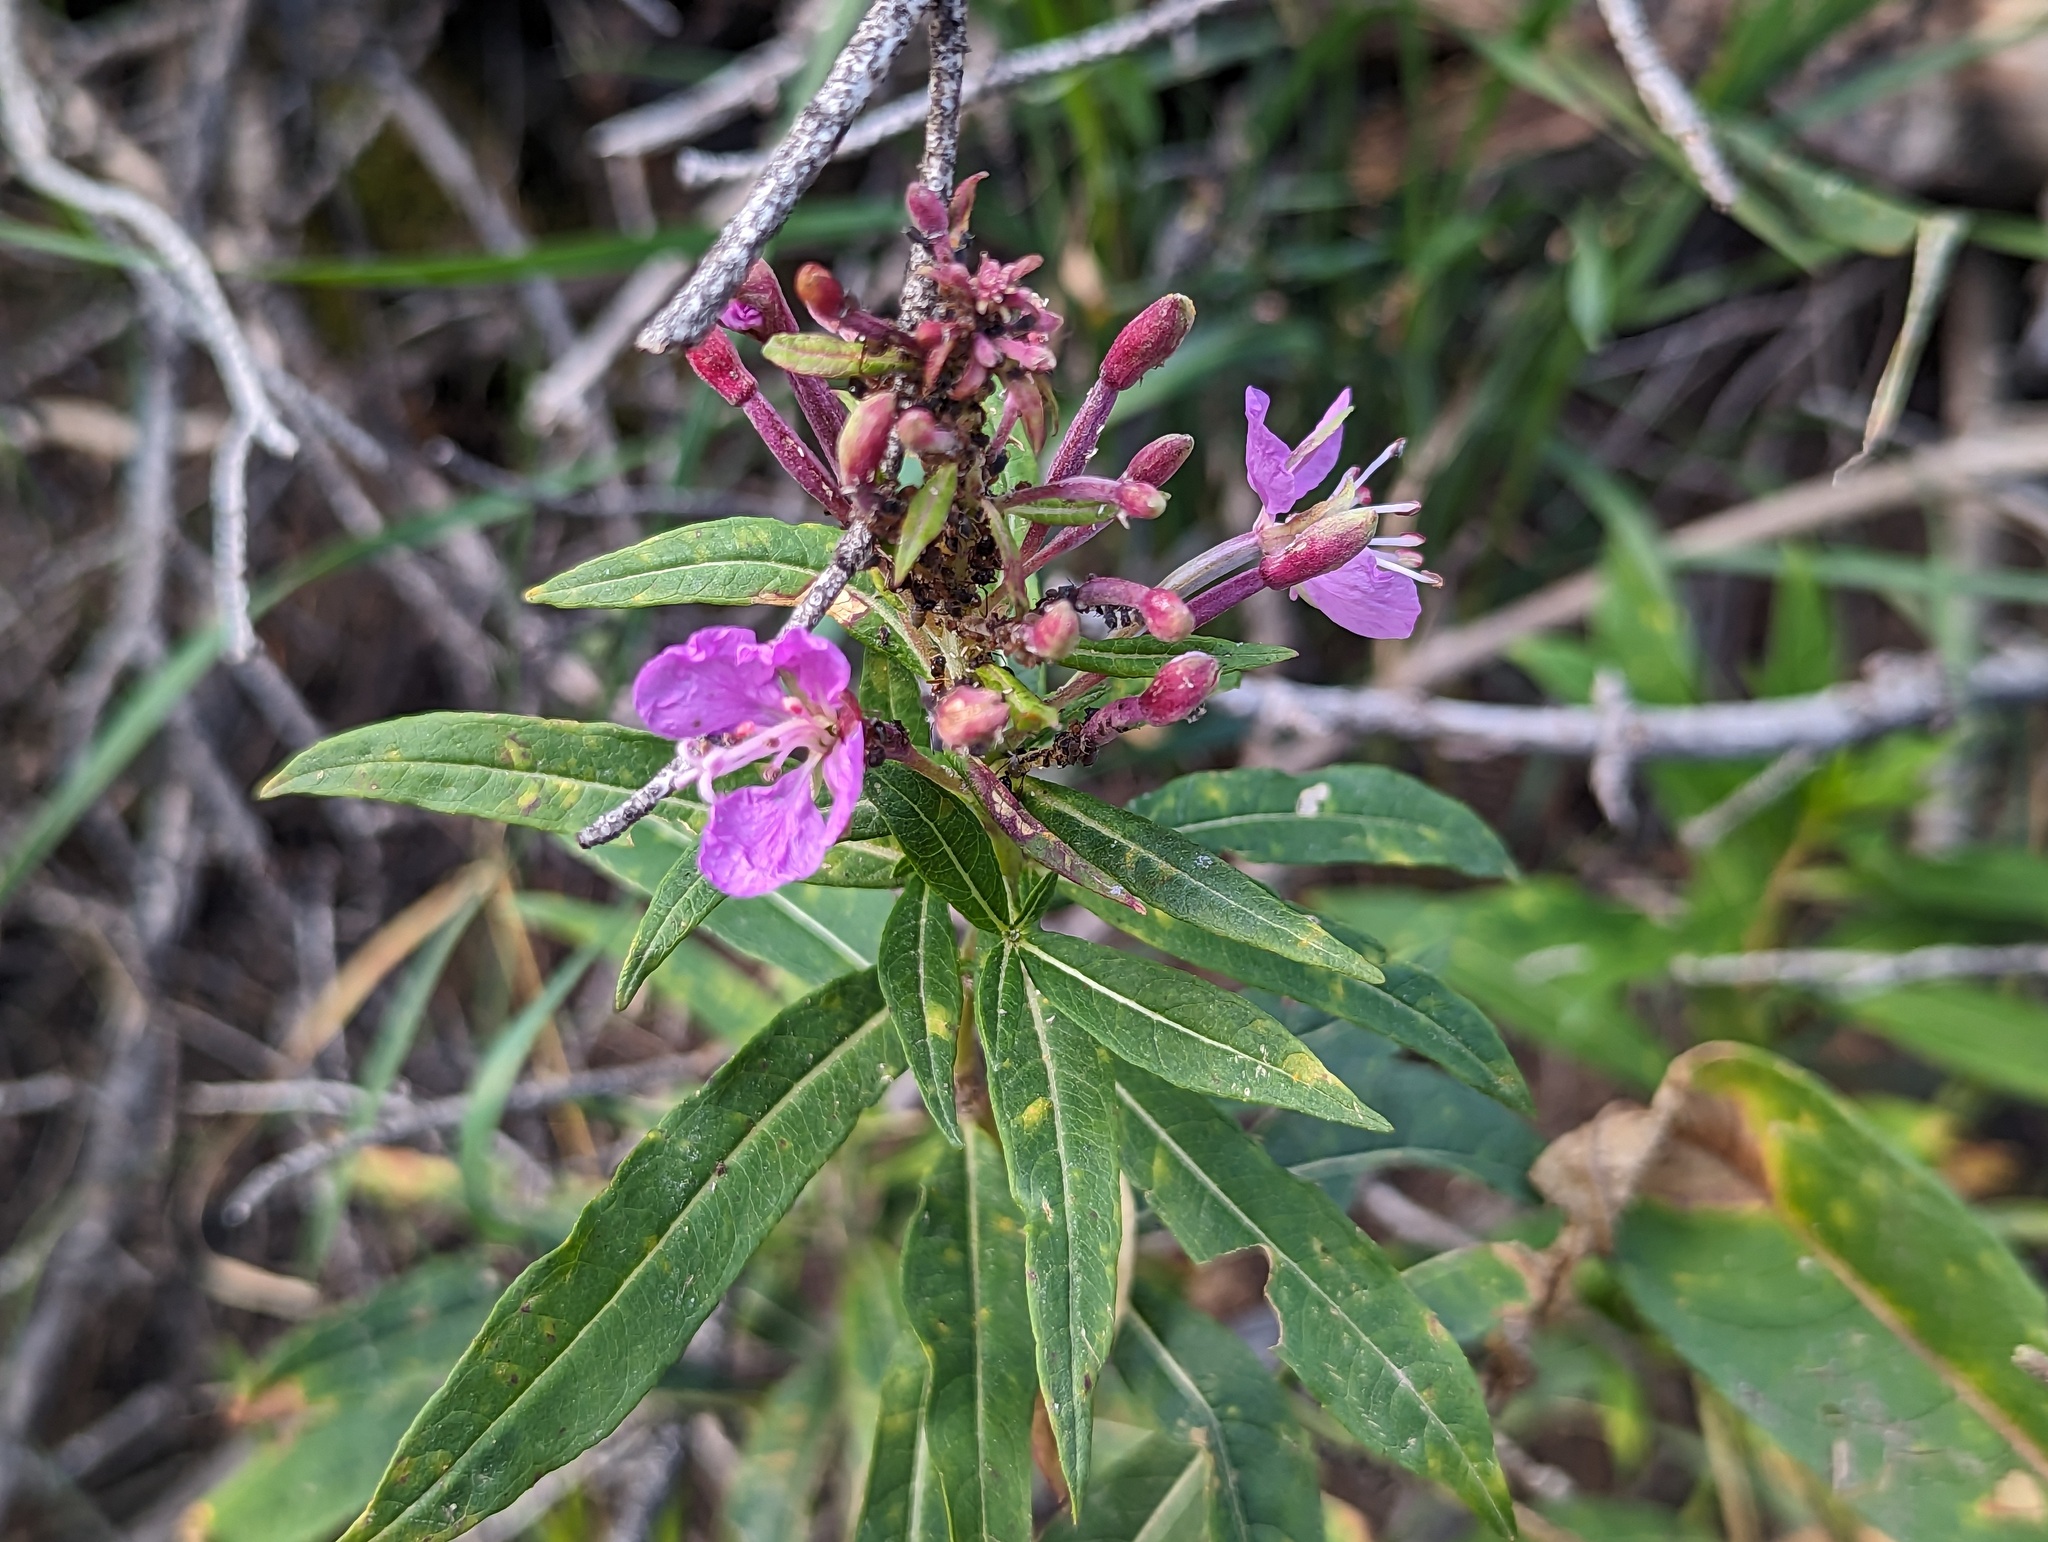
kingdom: Plantae
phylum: Tracheophyta
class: Magnoliopsida
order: Myrtales
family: Onagraceae
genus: Chamaenerion
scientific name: Chamaenerion angustifolium
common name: Fireweed
